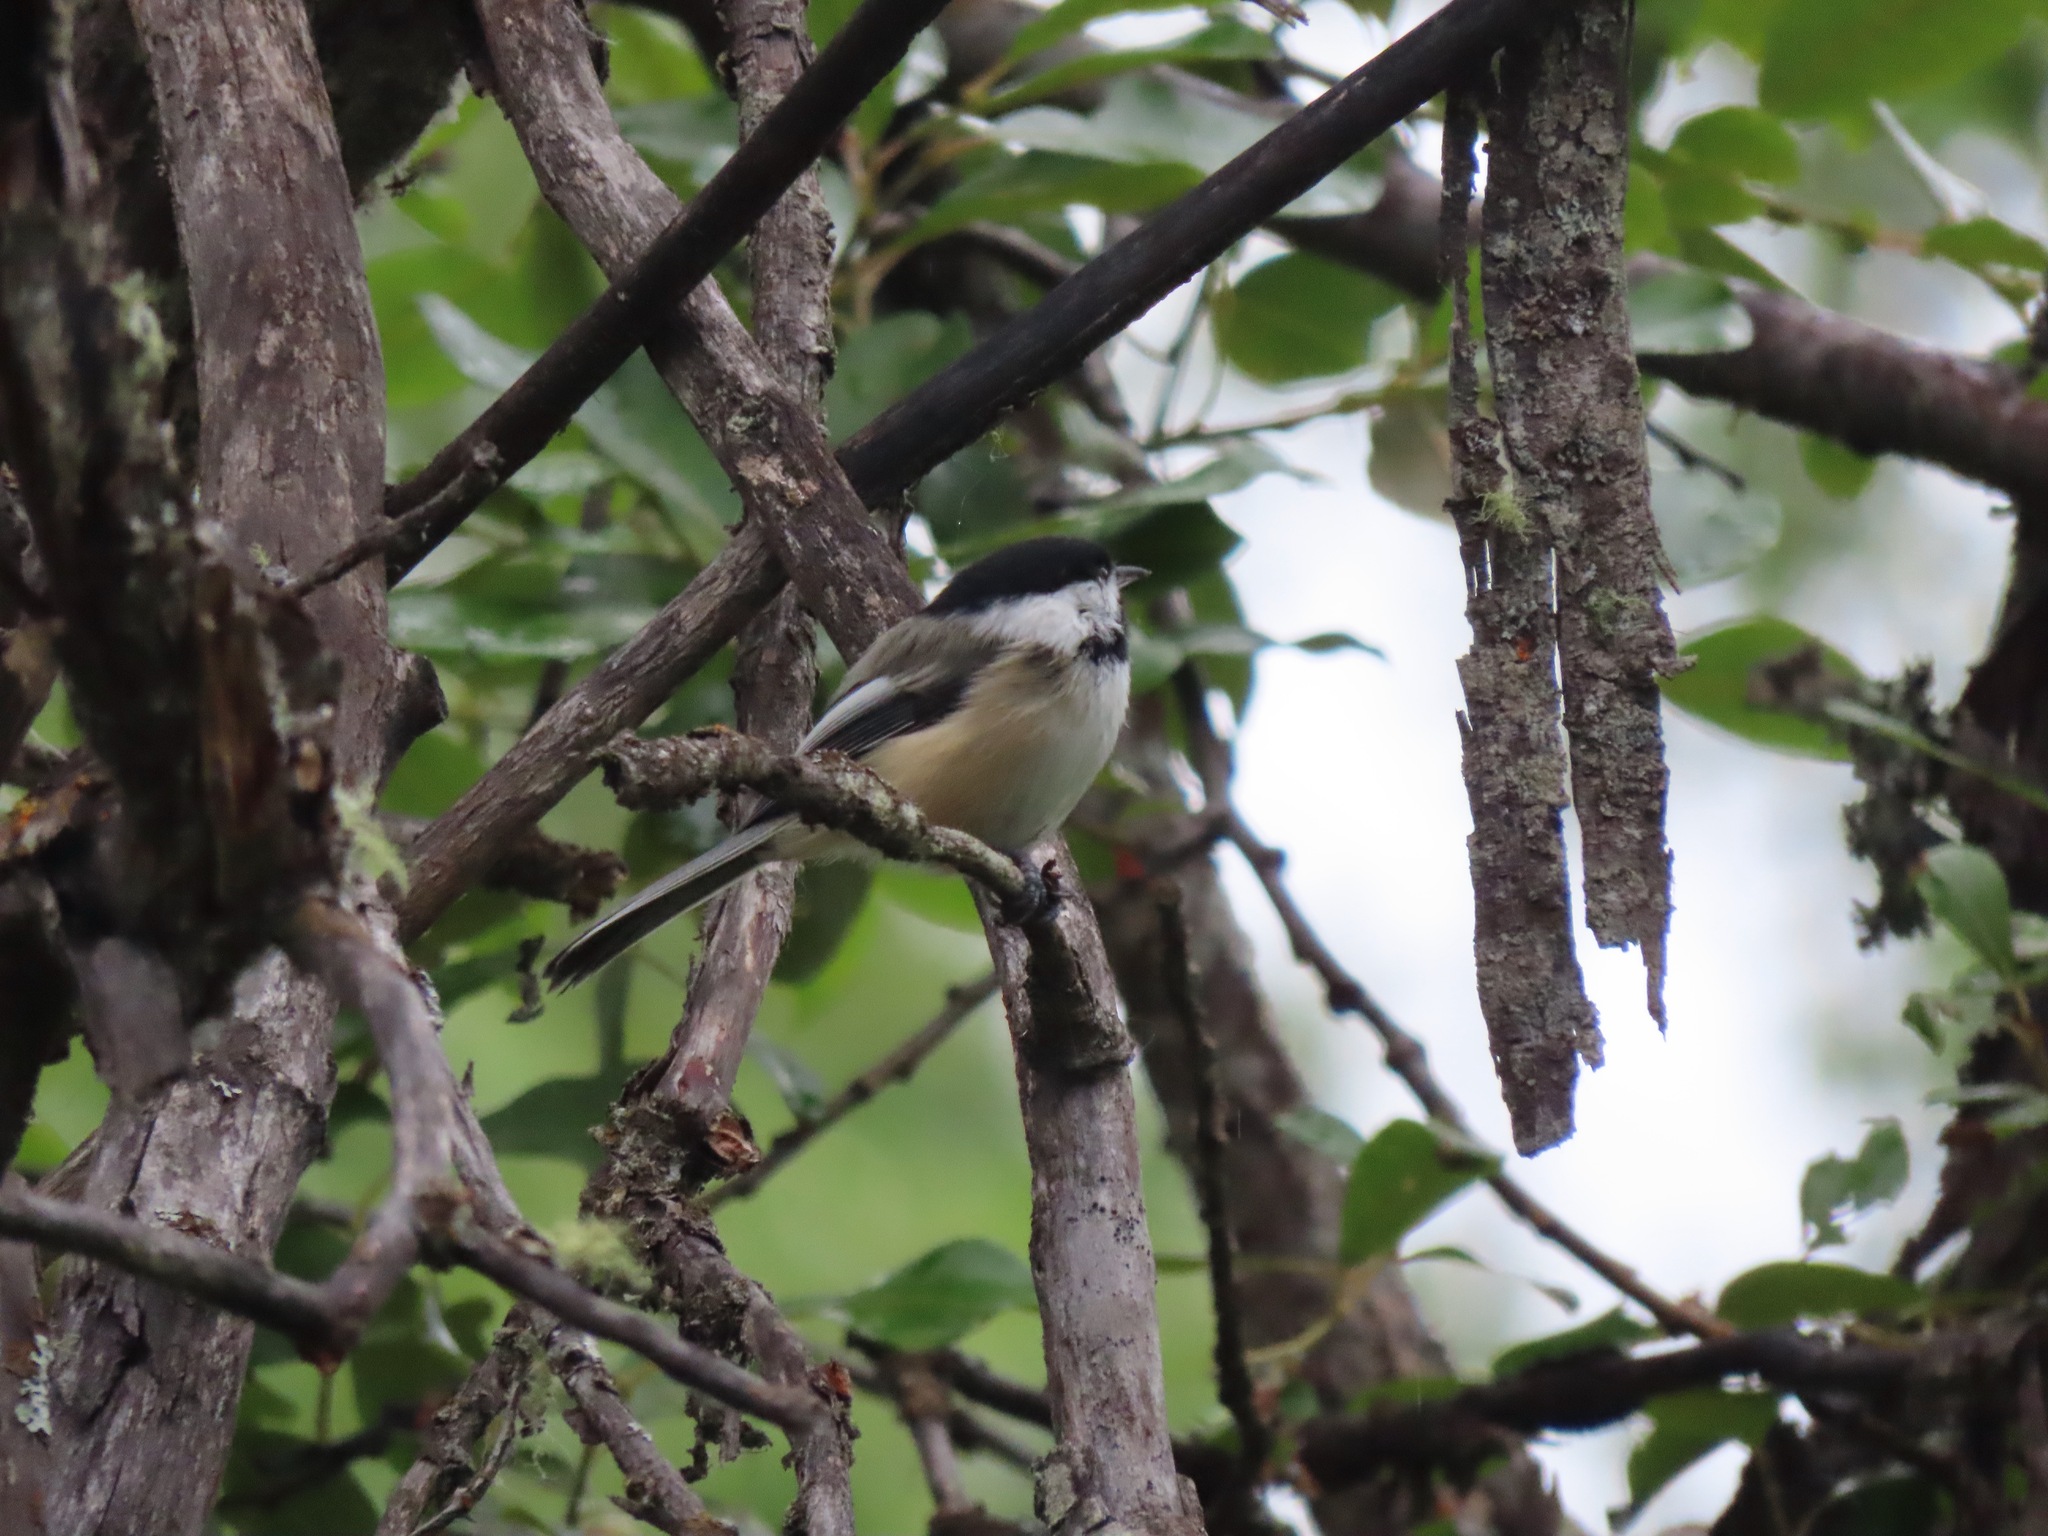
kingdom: Animalia
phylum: Chordata
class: Aves
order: Passeriformes
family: Paridae
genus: Poecile
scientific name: Poecile atricapillus
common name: Black-capped chickadee
